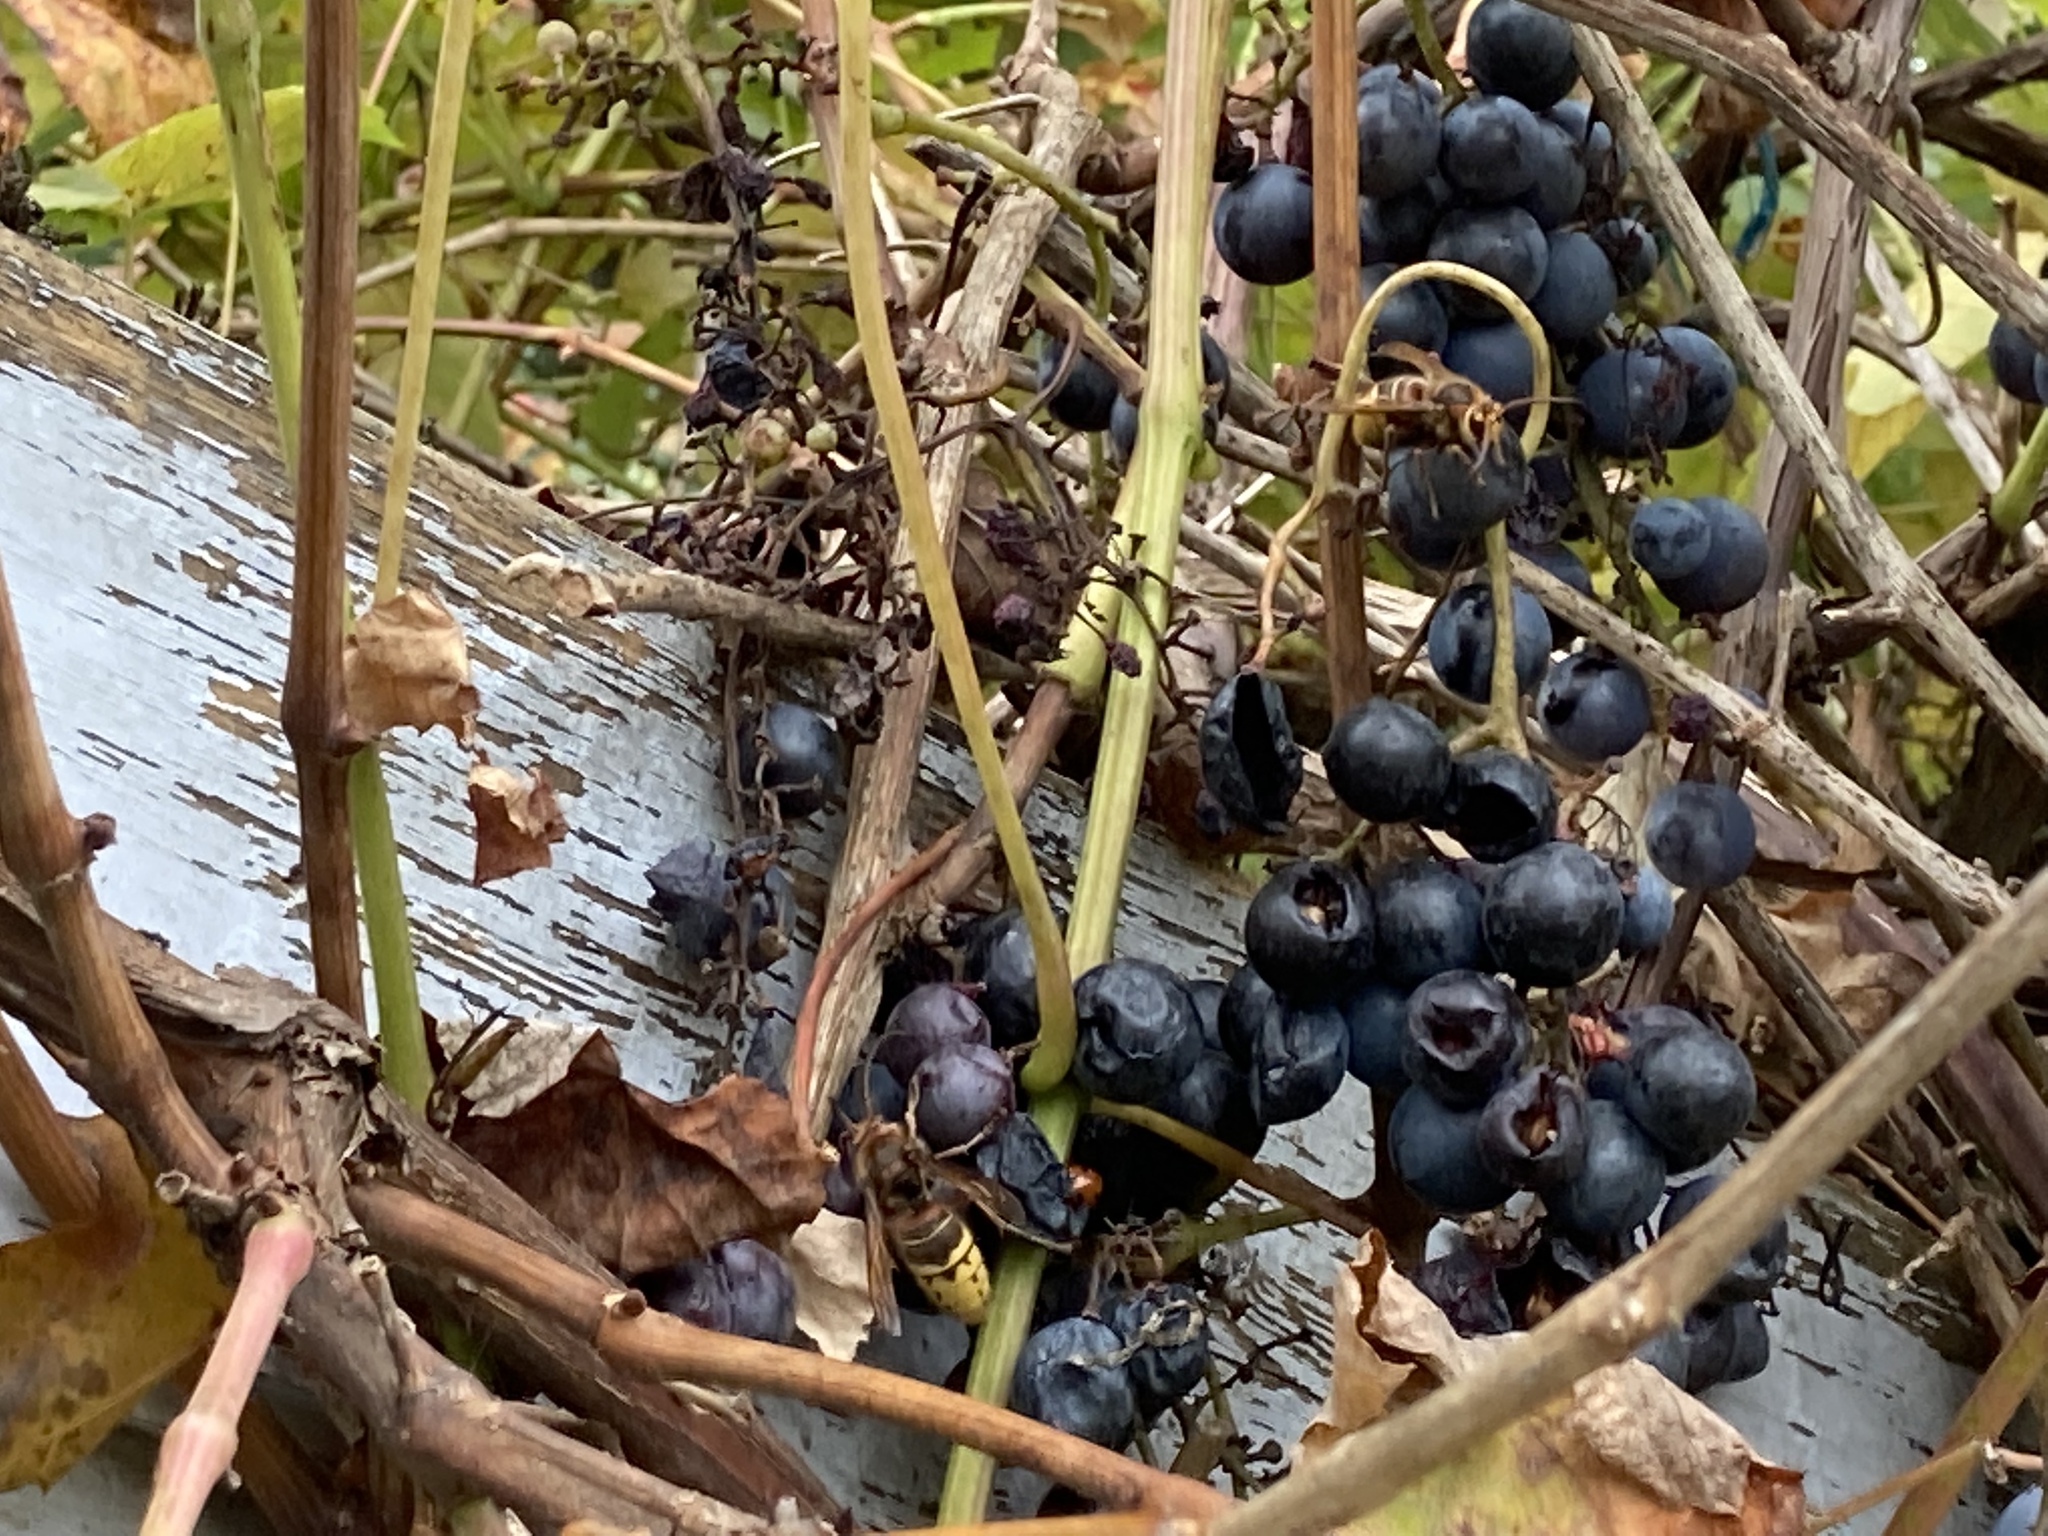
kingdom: Animalia
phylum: Arthropoda
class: Insecta
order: Hymenoptera
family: Vespidae
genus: Vespa
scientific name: Vespa crabro
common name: Hornet
